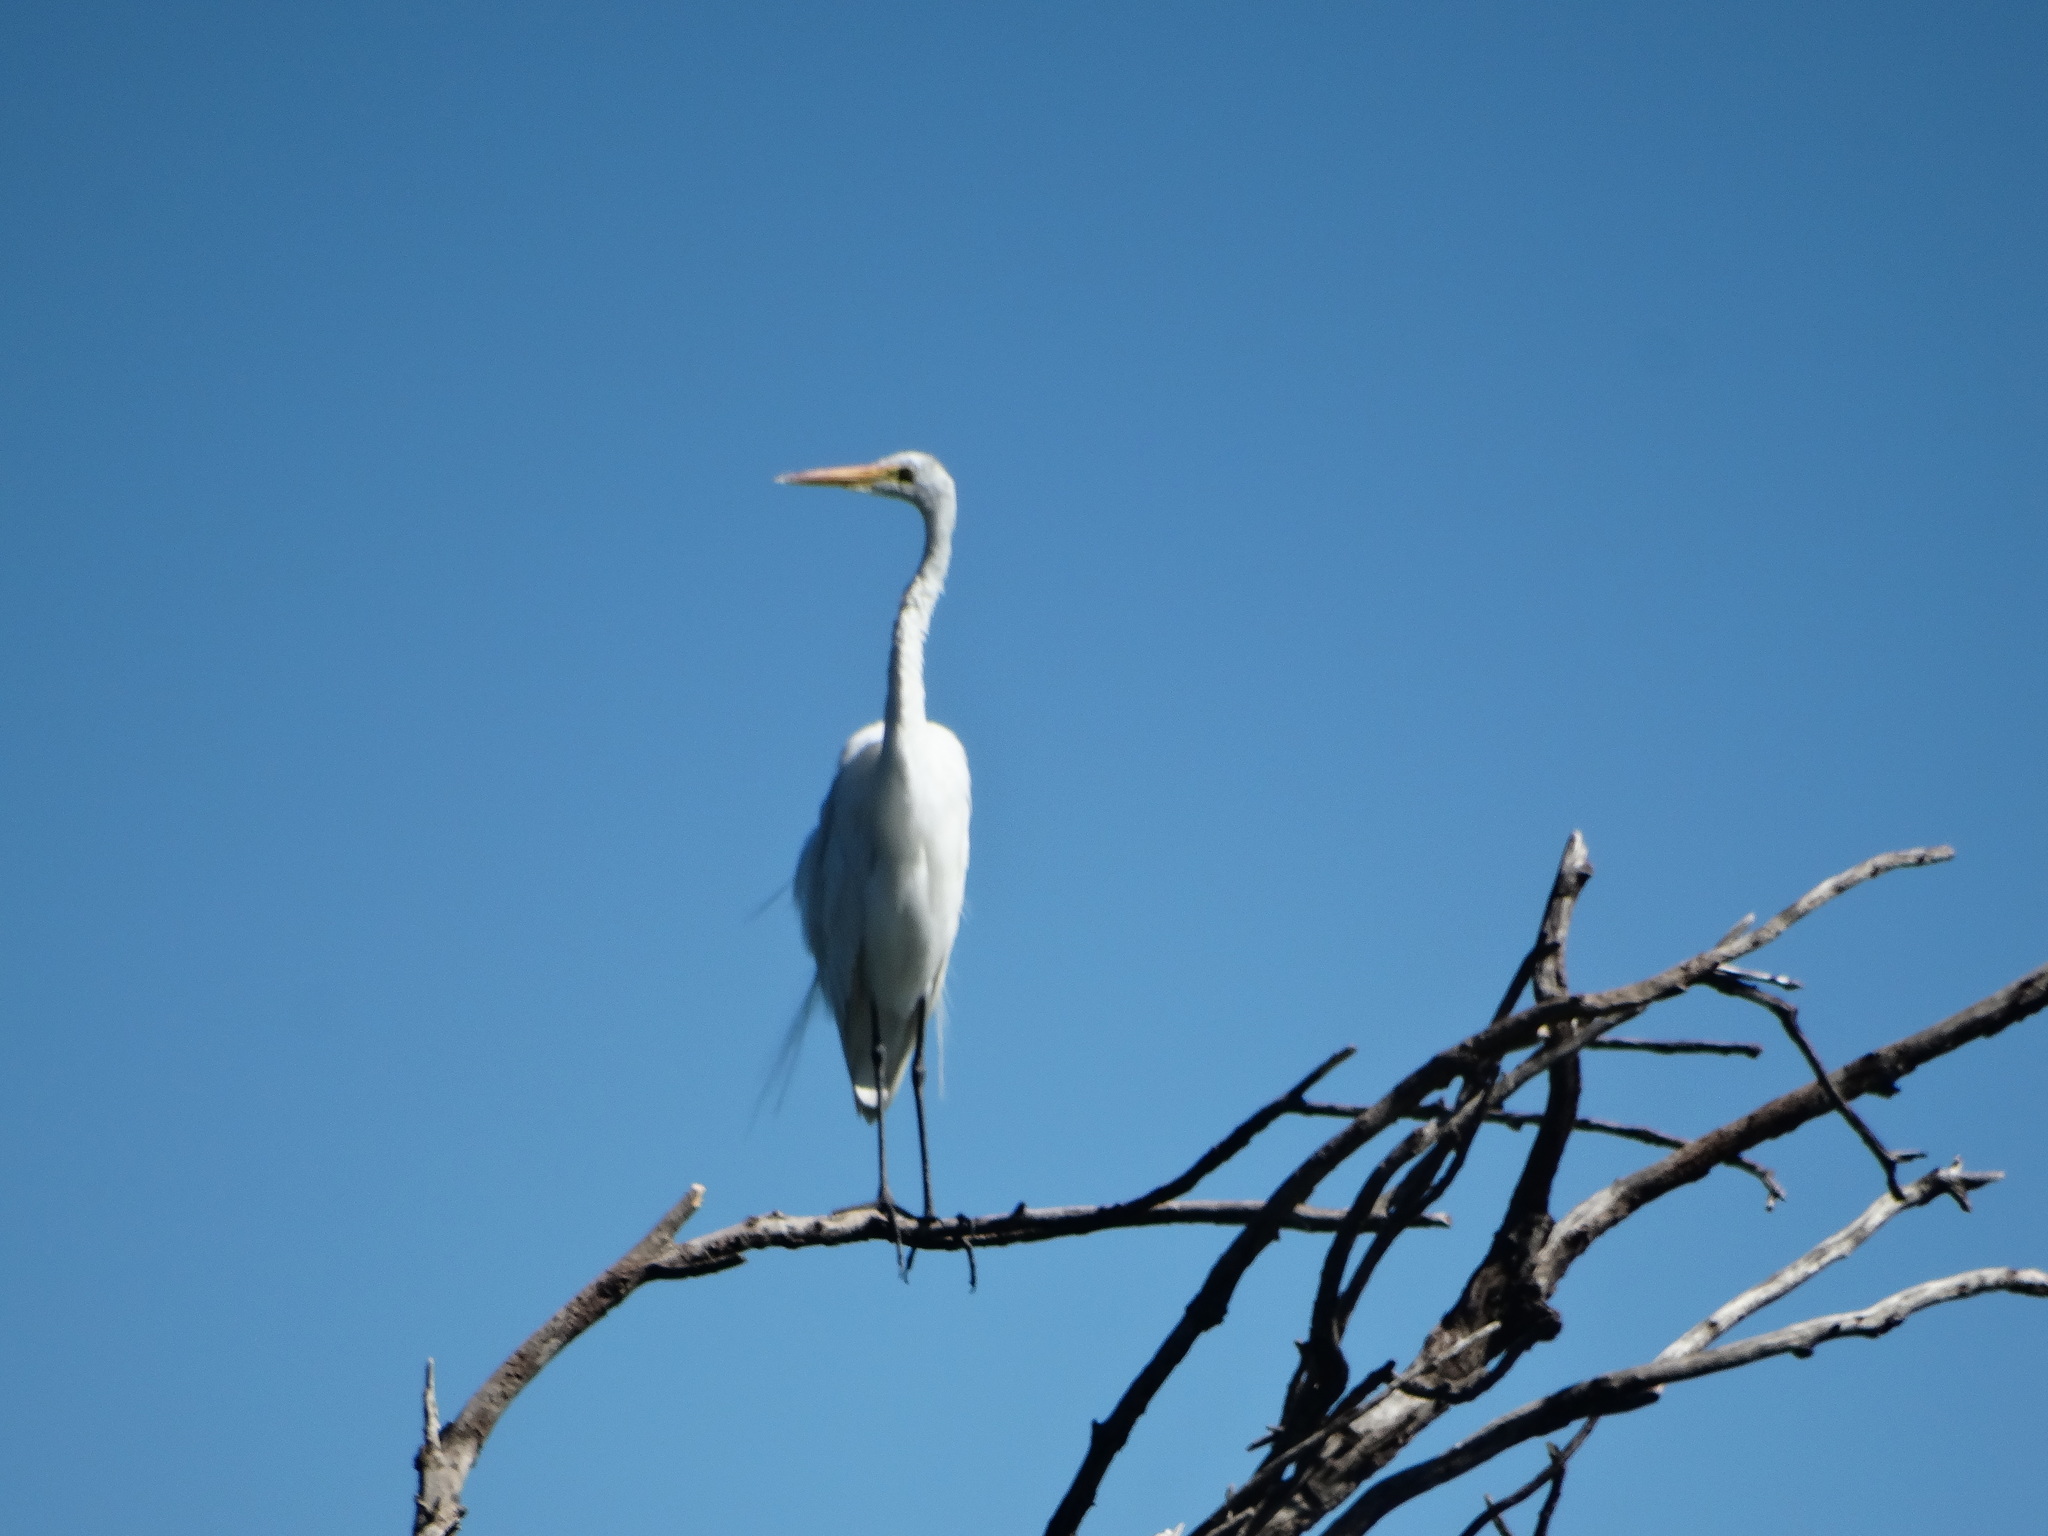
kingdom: Animalia
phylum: Chordata
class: Aves
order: Pelecaniformes
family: Ardeidae
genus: Ardea
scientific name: Ardea alba
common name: Great egret
